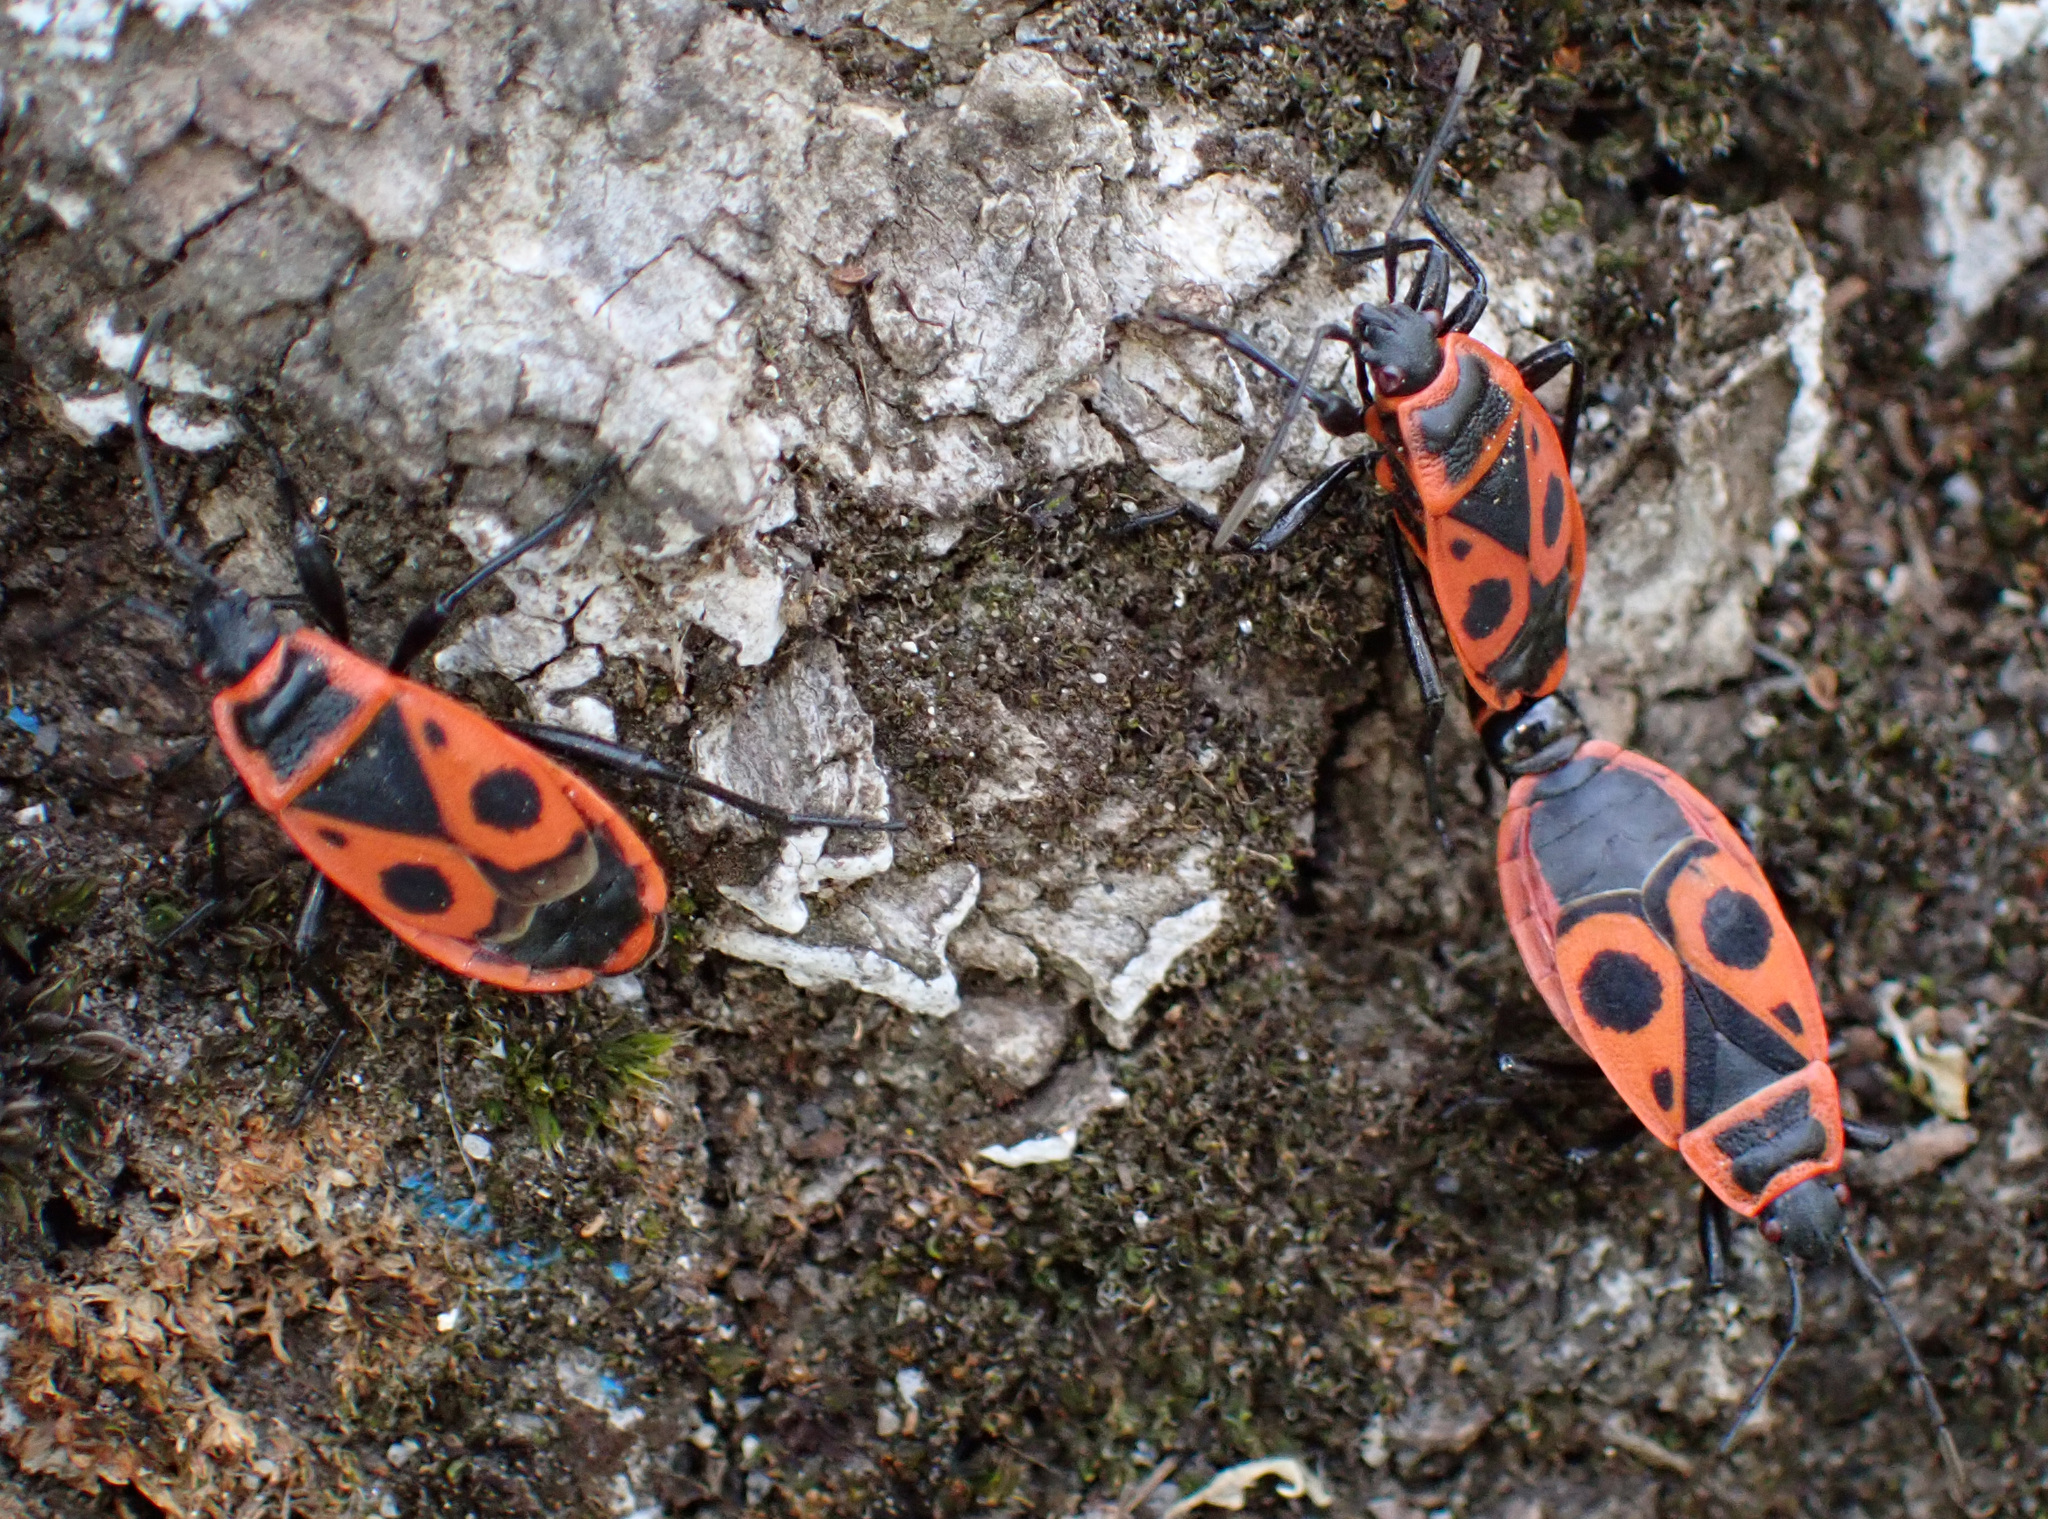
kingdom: Animalia
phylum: Arthropoda
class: Insecta
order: Hemiptera
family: Pyrrhocoridae
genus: Pyrrhocoris
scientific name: Pyrrhocoris apterus
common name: Firebug
